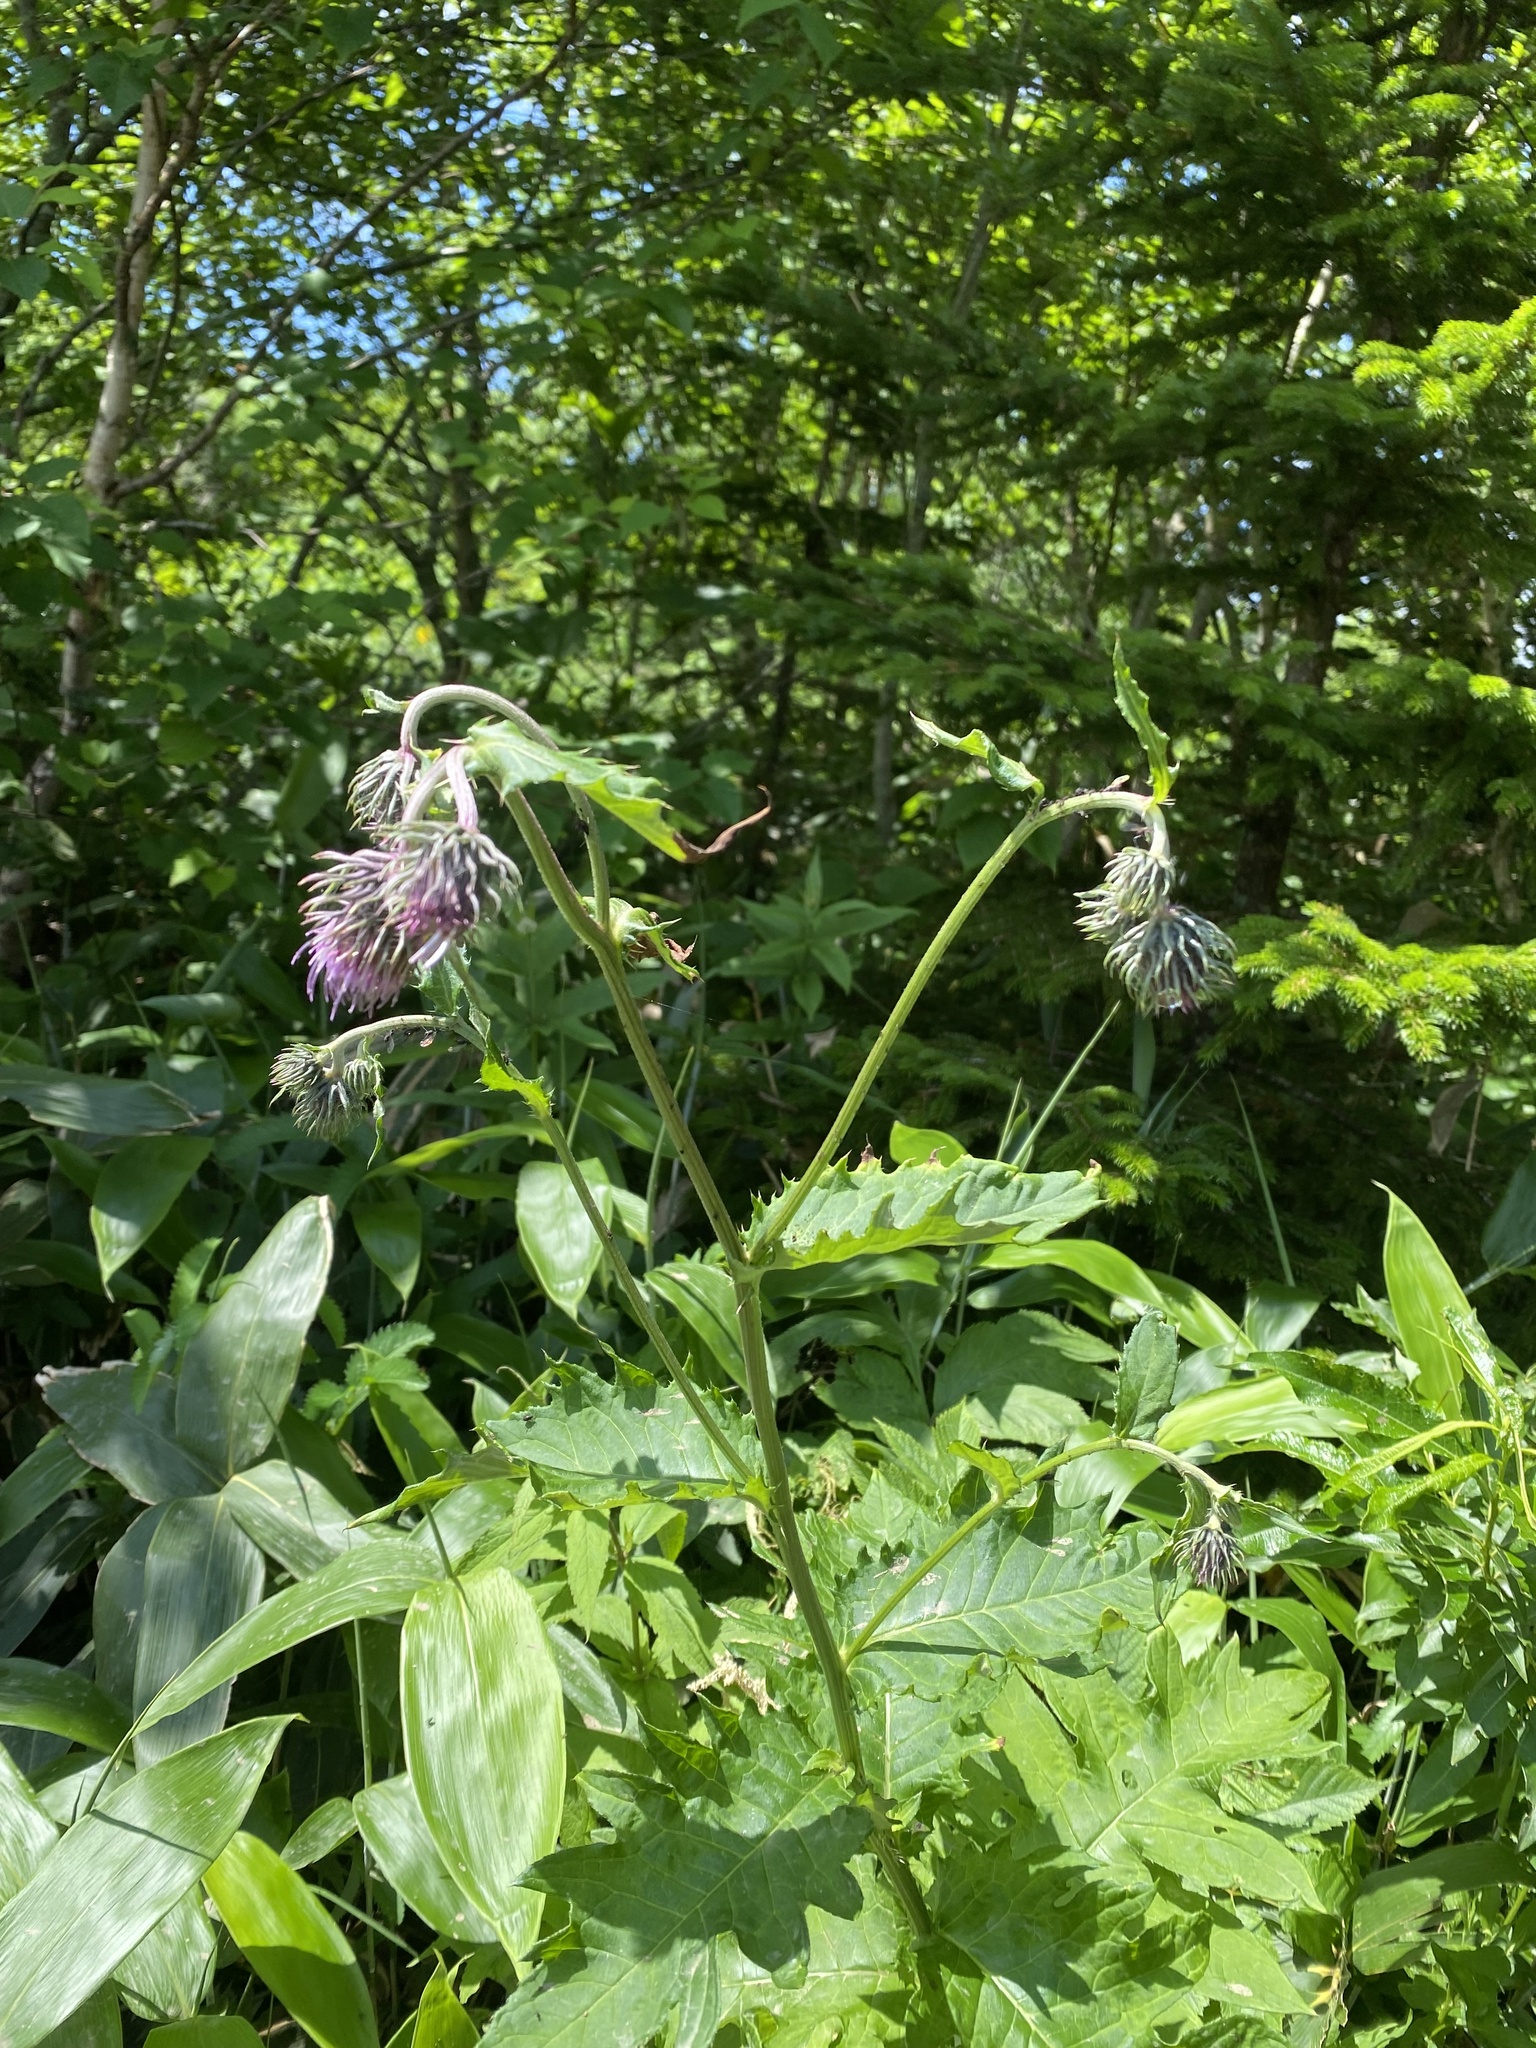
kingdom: Plantae
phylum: Tracheophyta
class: Magnoliopsida
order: Asterales
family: Asteraceae
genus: Cirsium
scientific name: Cirsium kamtschaticum
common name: Kamchatka thistle
